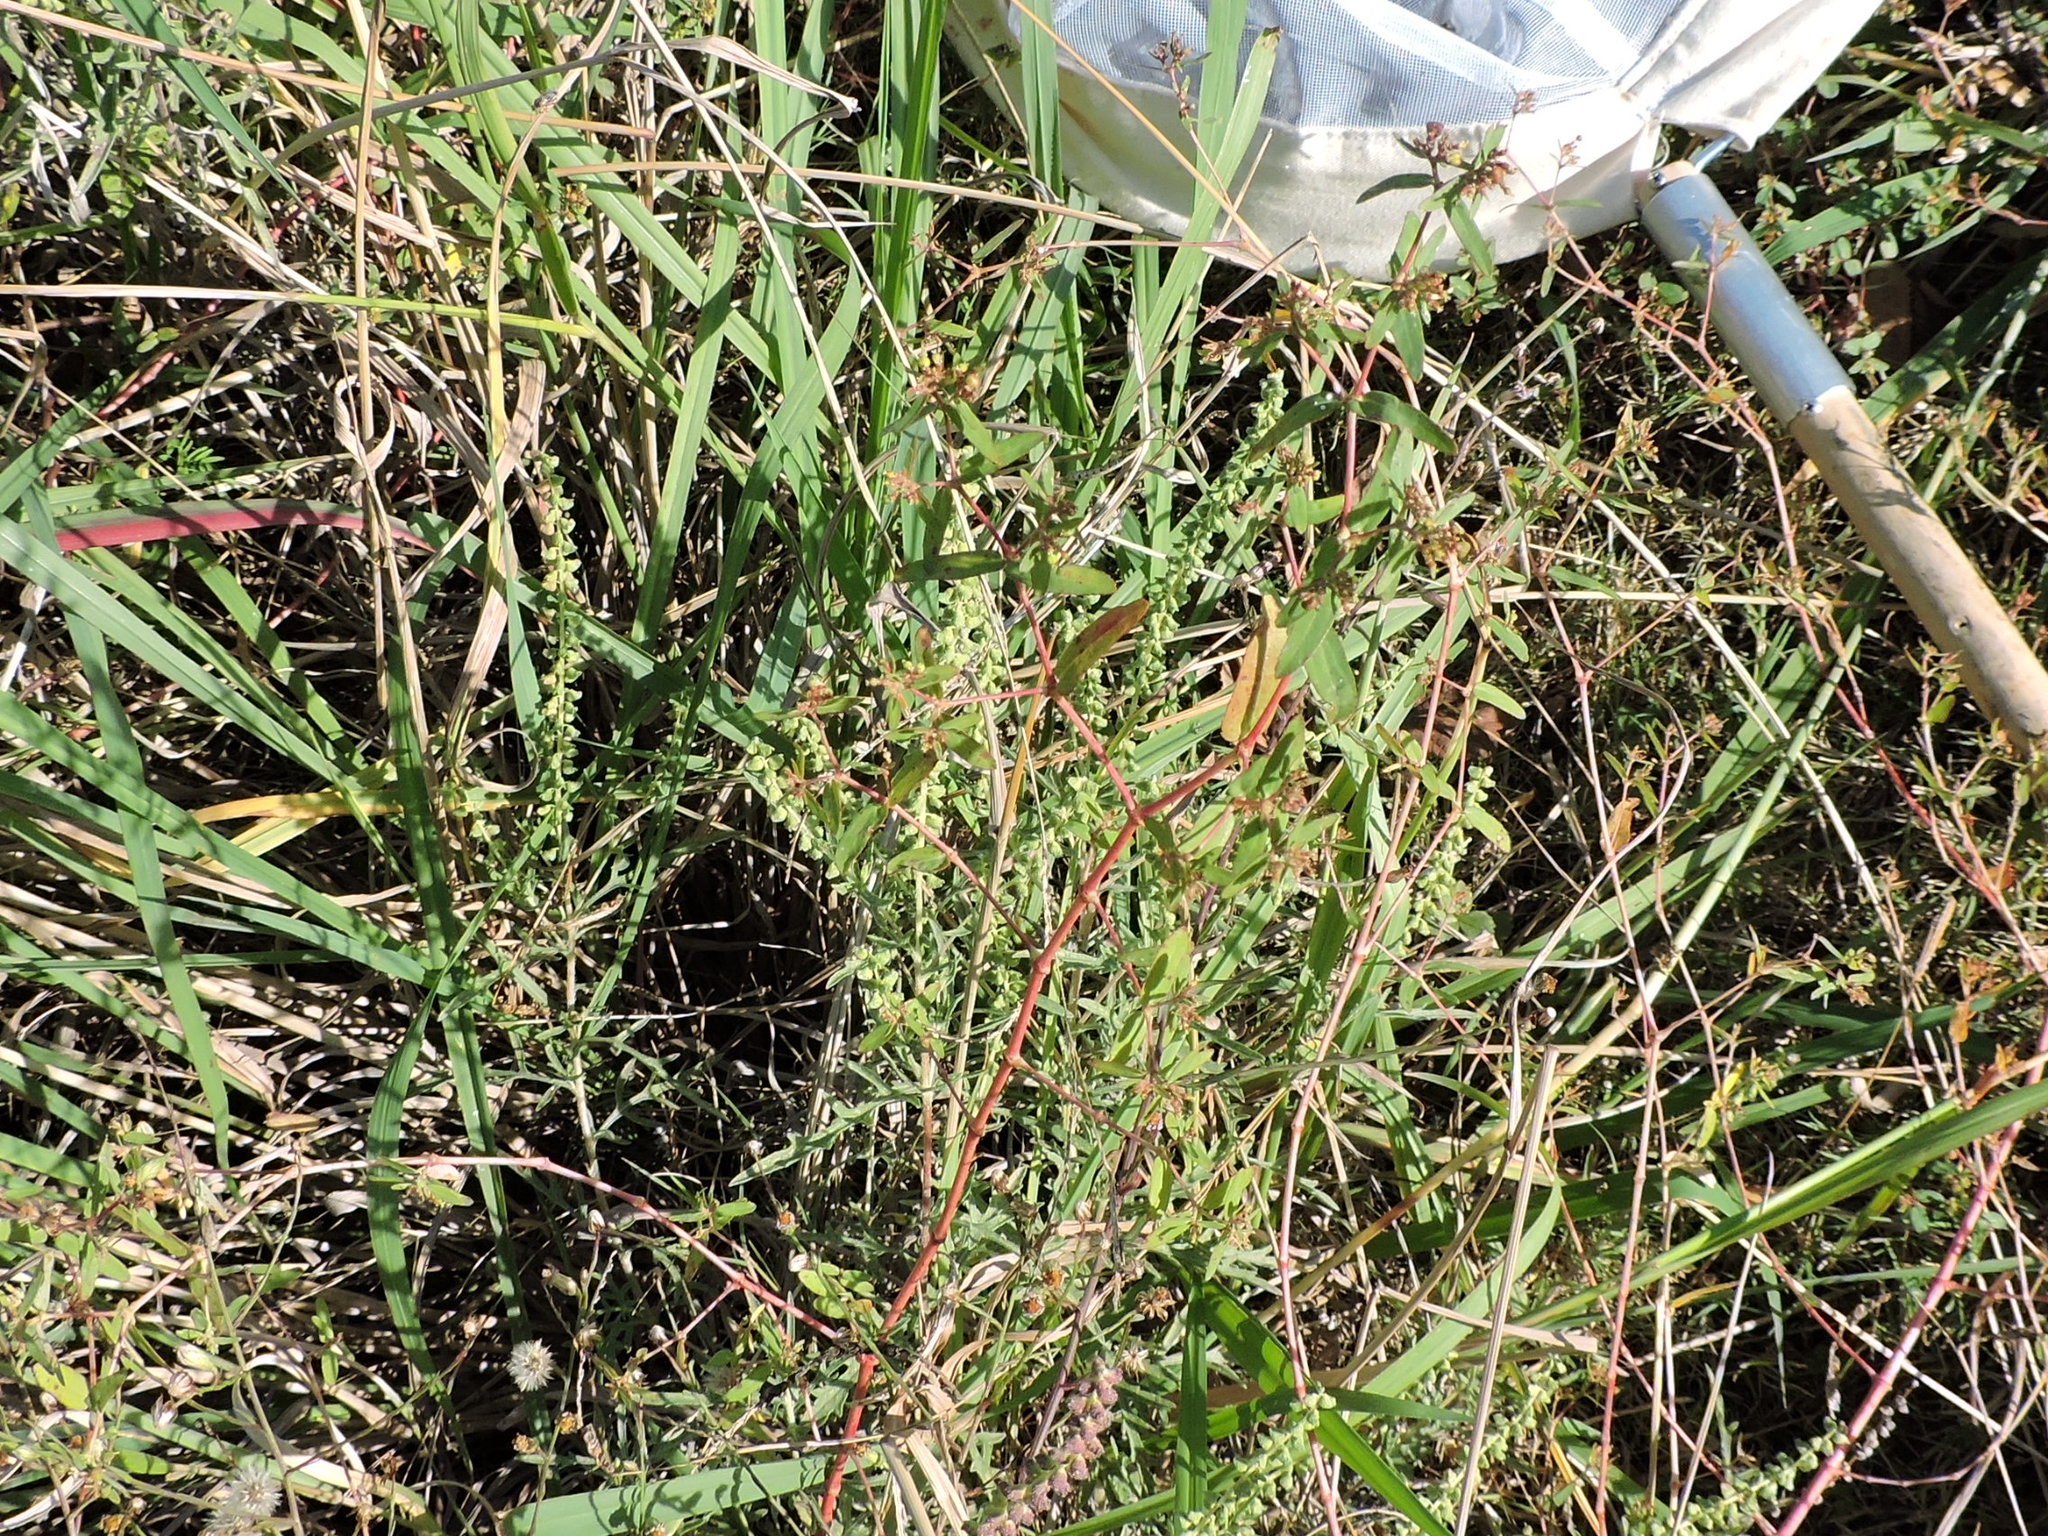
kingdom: Plantae
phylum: Tracheophyta
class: Magnoliopsida
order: Malpighiales
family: Euphorbiaceae
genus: Euphorbia
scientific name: Euphorbia nutans
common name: Eyebane
